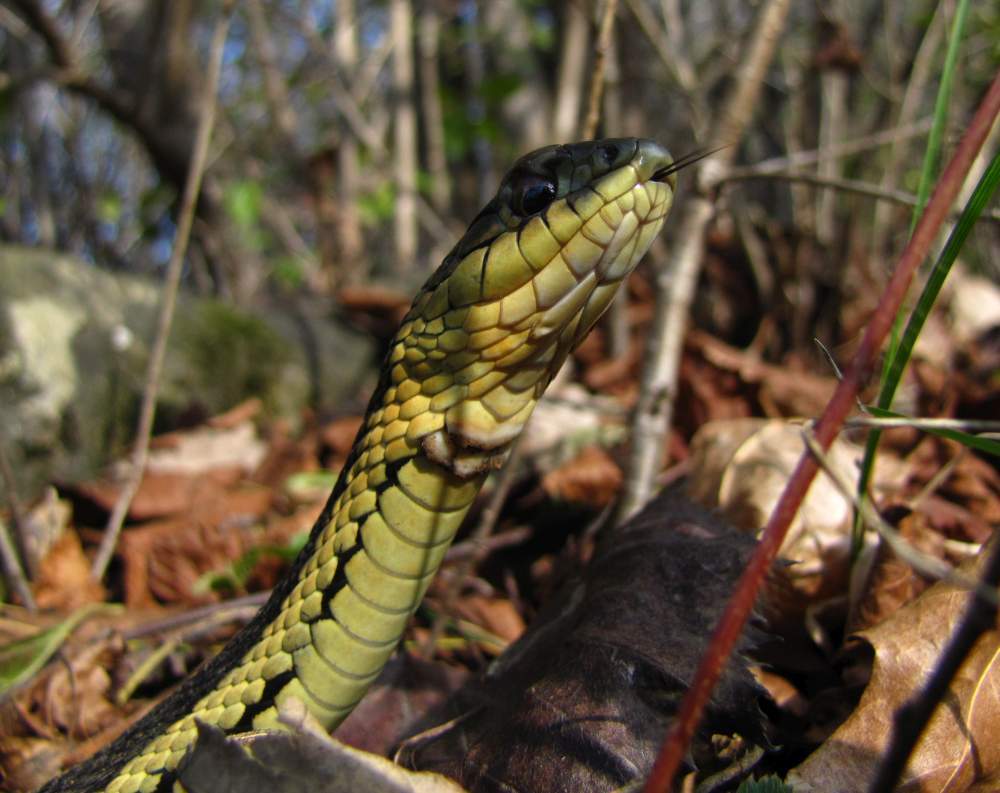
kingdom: Animalia
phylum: Chordata
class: Squamata
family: Colubridae
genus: Thamnophis
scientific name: Thamnophis sirtalis
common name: Common garter snake
